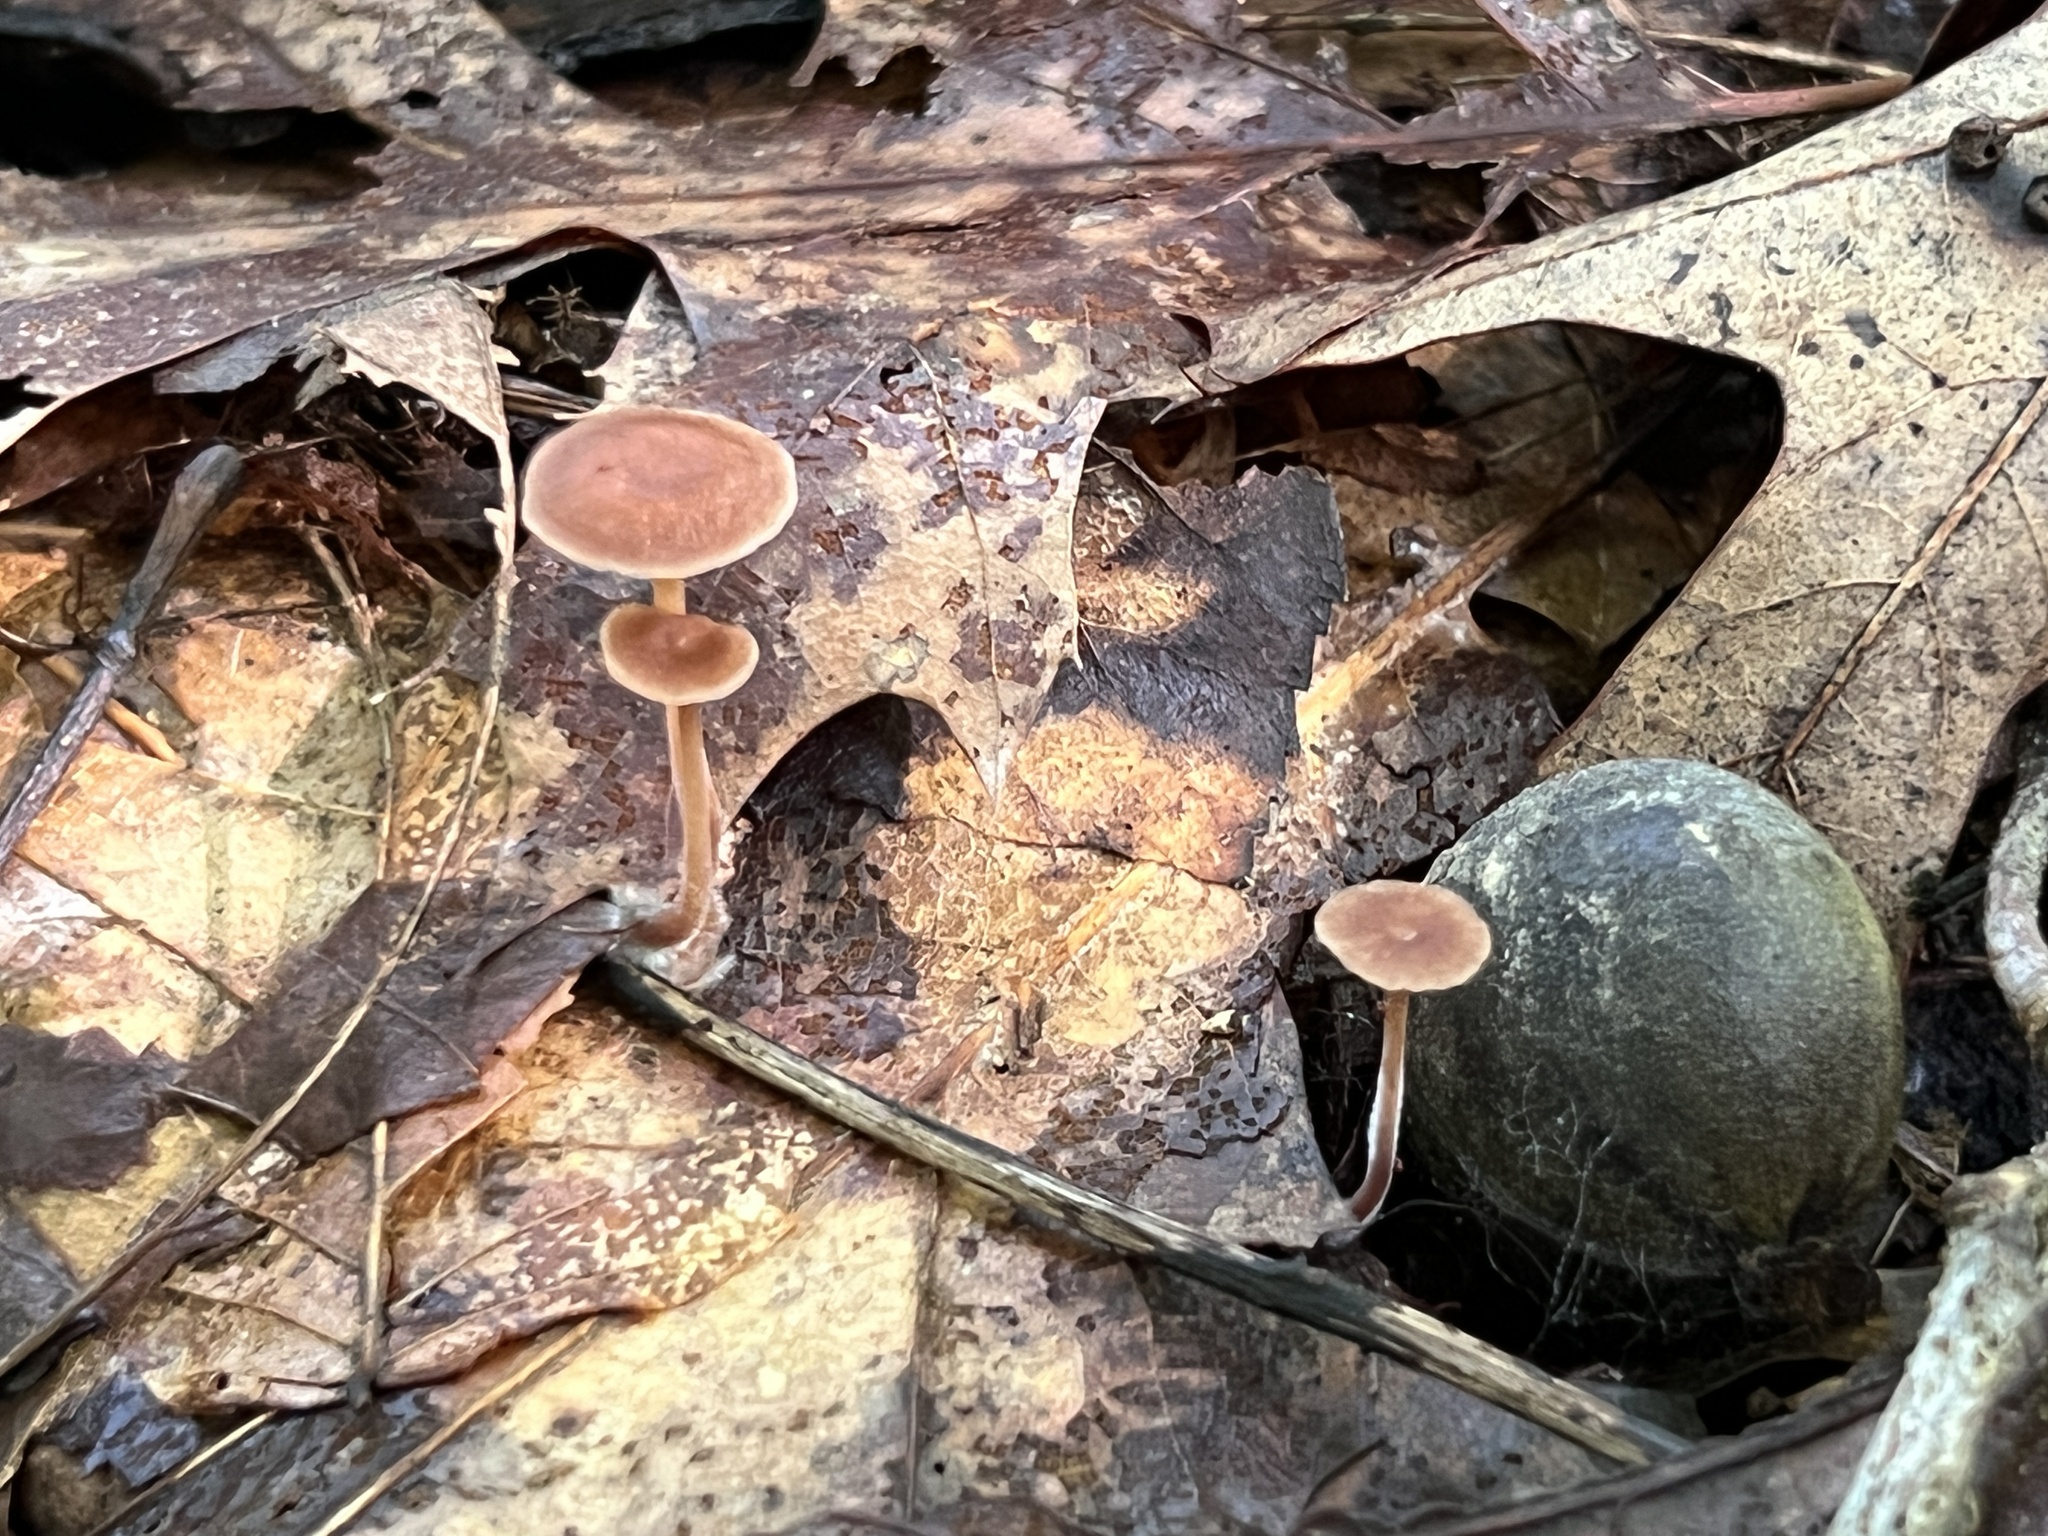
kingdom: Fungi
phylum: Basidiomycota
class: Agaricomycetes
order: Agaricales
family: Omphalotaceae
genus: Collybiopsis
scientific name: Collybiopsis subnuda
